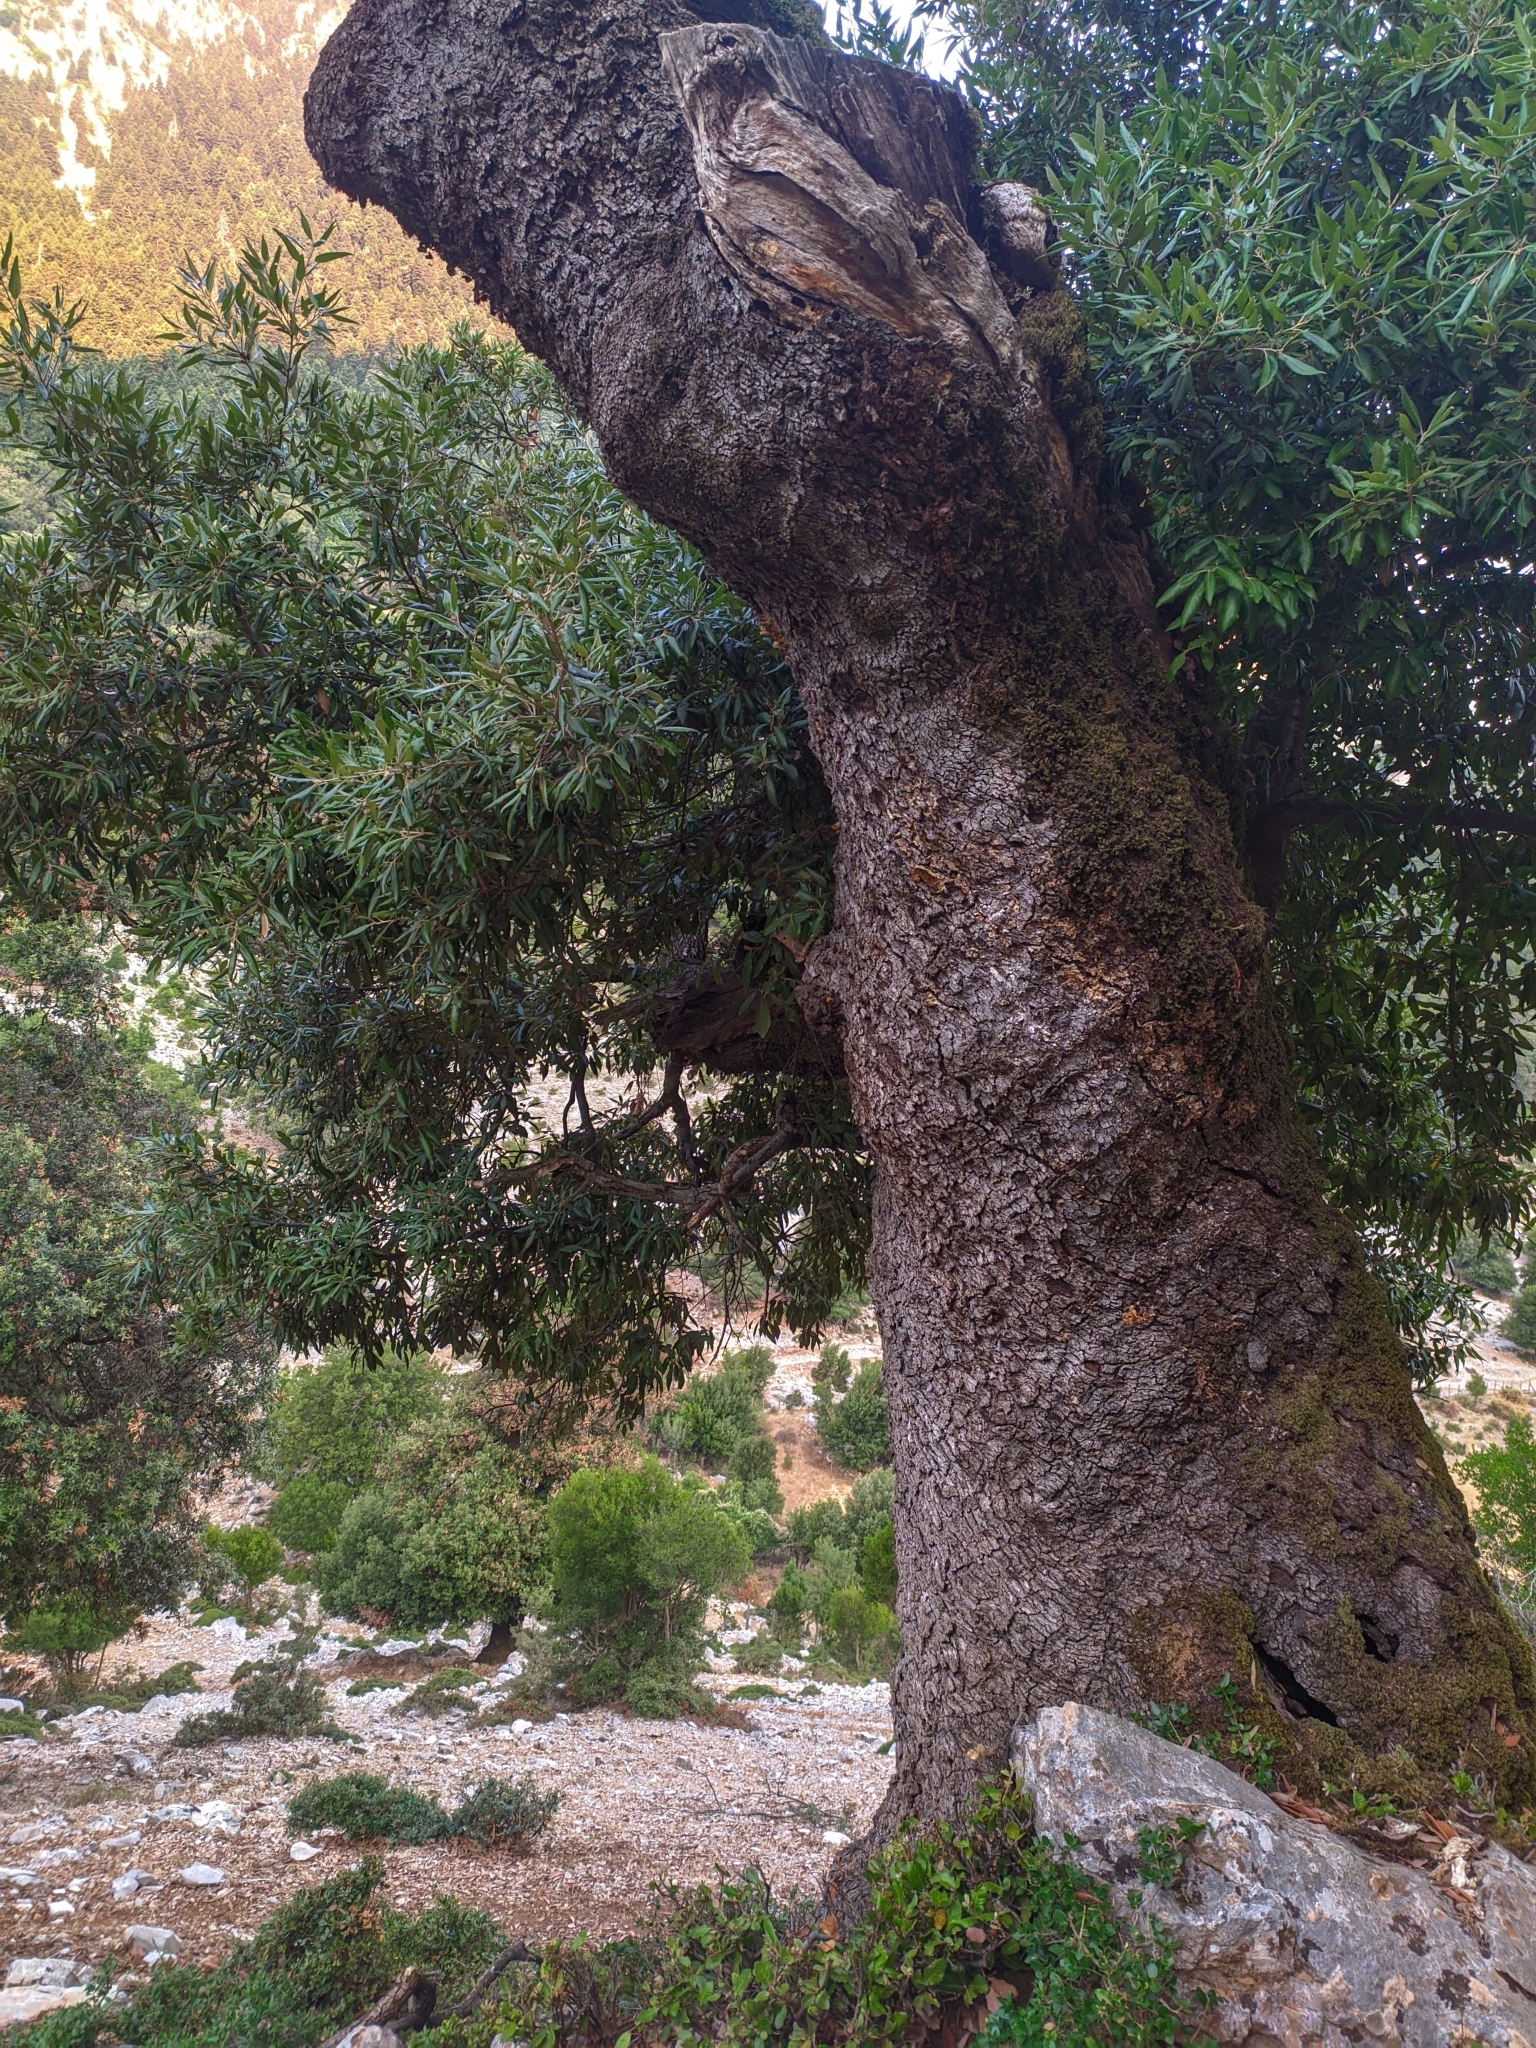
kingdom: Plantae
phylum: Tracheophyta
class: Magnoliopsida
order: Fagales
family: Fagaceae
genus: Quercus
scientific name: Quercus ilex
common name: Evergreen oak
